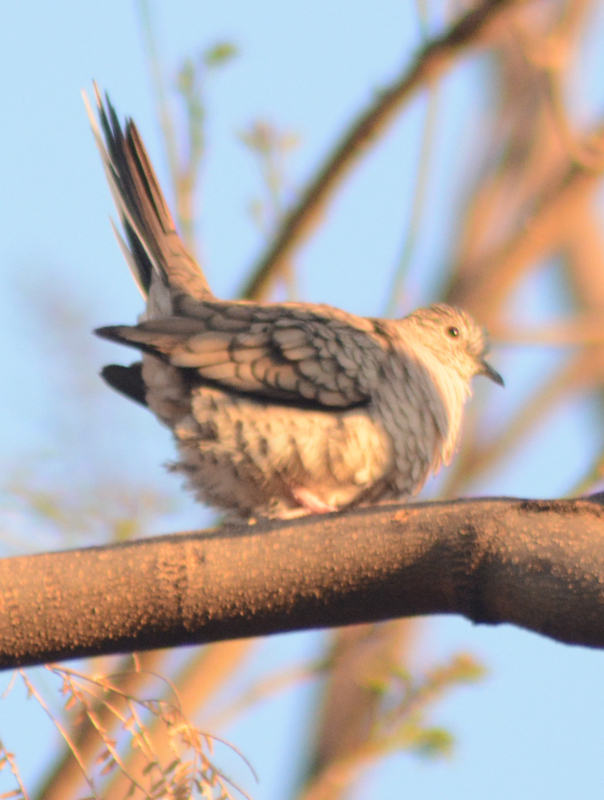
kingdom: Animalia
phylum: Chordata
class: Aves
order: Columbiformes
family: Columbidae
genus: Columbina
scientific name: Columbina inca
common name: Inca dove
